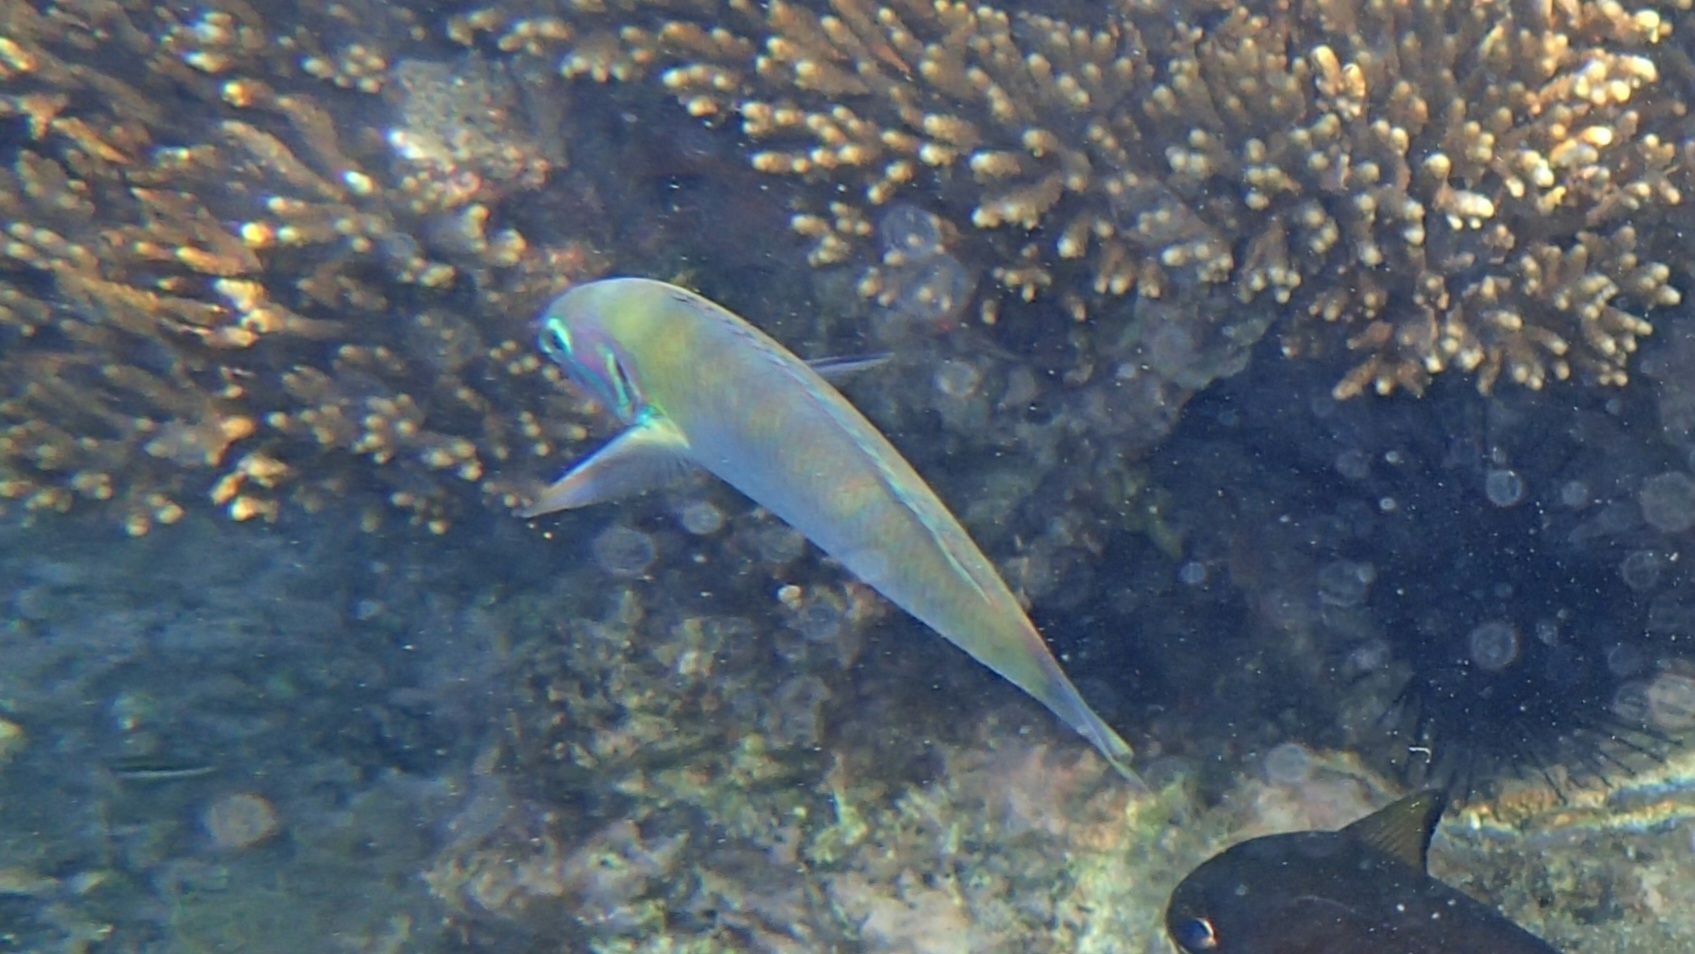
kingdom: Animalia
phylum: Chordata
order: Perciformes
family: Labridae
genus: Thalassoma
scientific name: Thalassoma genivittatum
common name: Red-cheek wrasse
